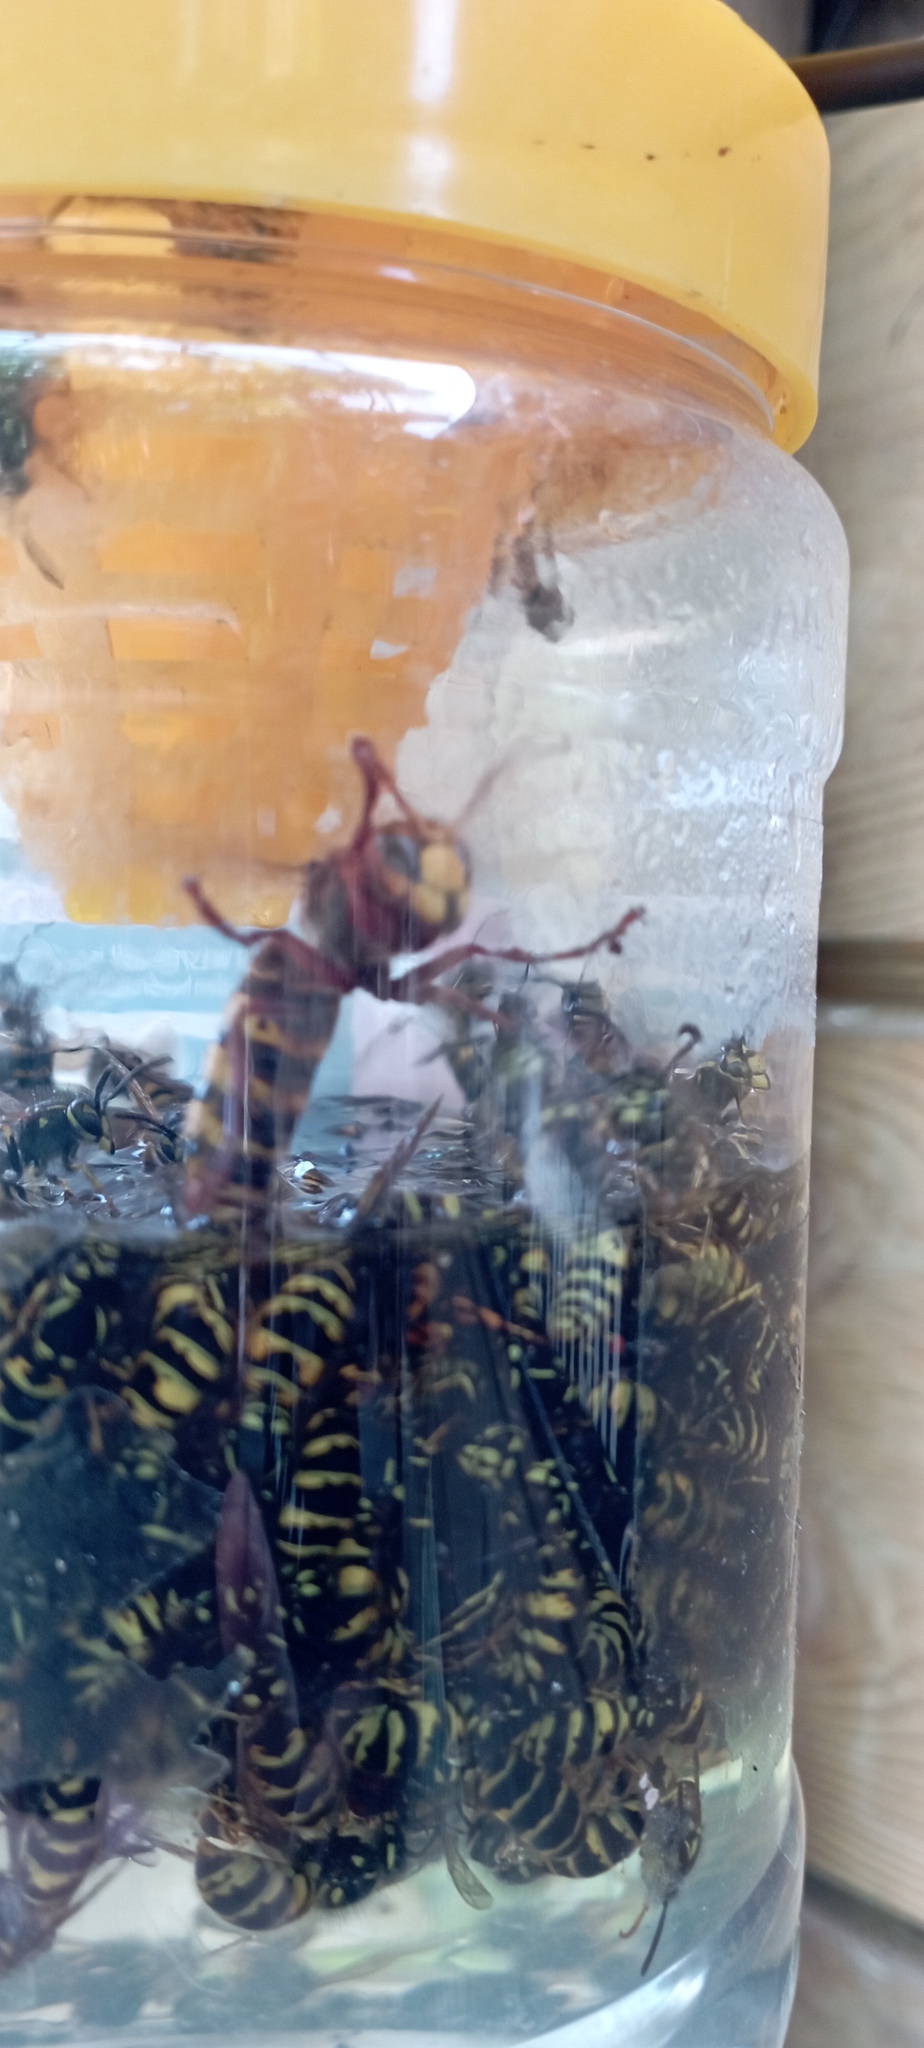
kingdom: Animalia
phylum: Arthropoda
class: Insecta
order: Hymenoptera
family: Vespidae
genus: Vespa
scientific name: Vespa crabro
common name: Hornet
